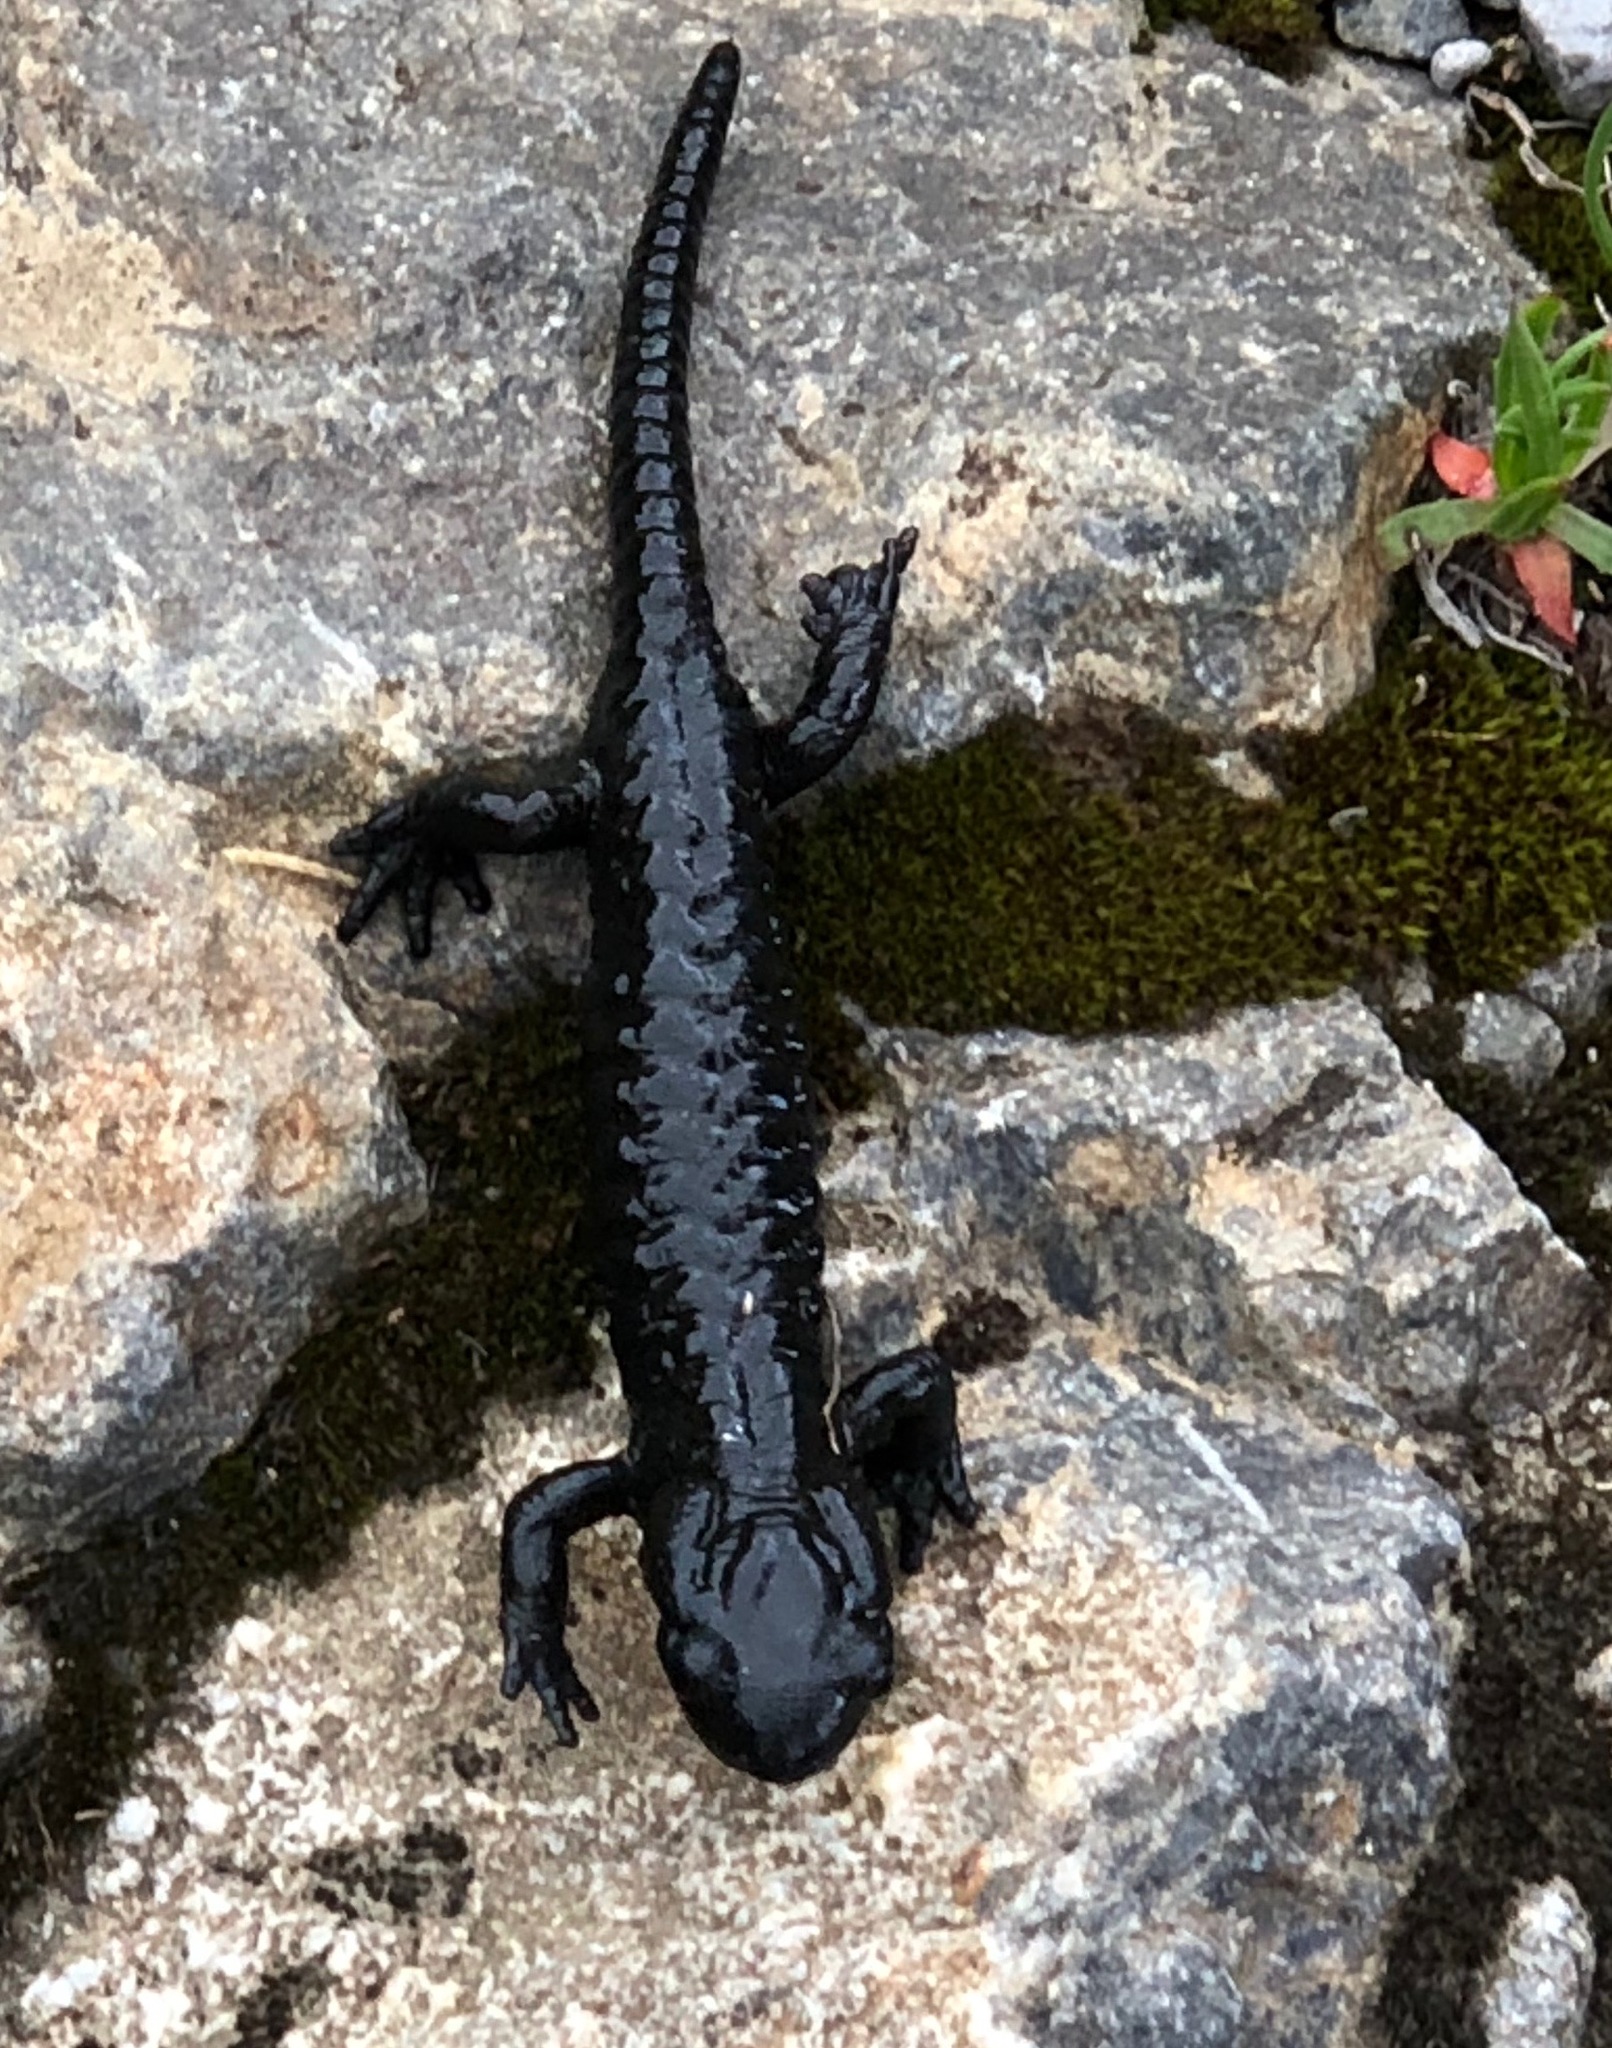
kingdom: Animalia
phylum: Chordata
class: Amphibia
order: Caudata
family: Salamandridae
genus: Salamandra
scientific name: Salamandra atra
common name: Alpine salamander
